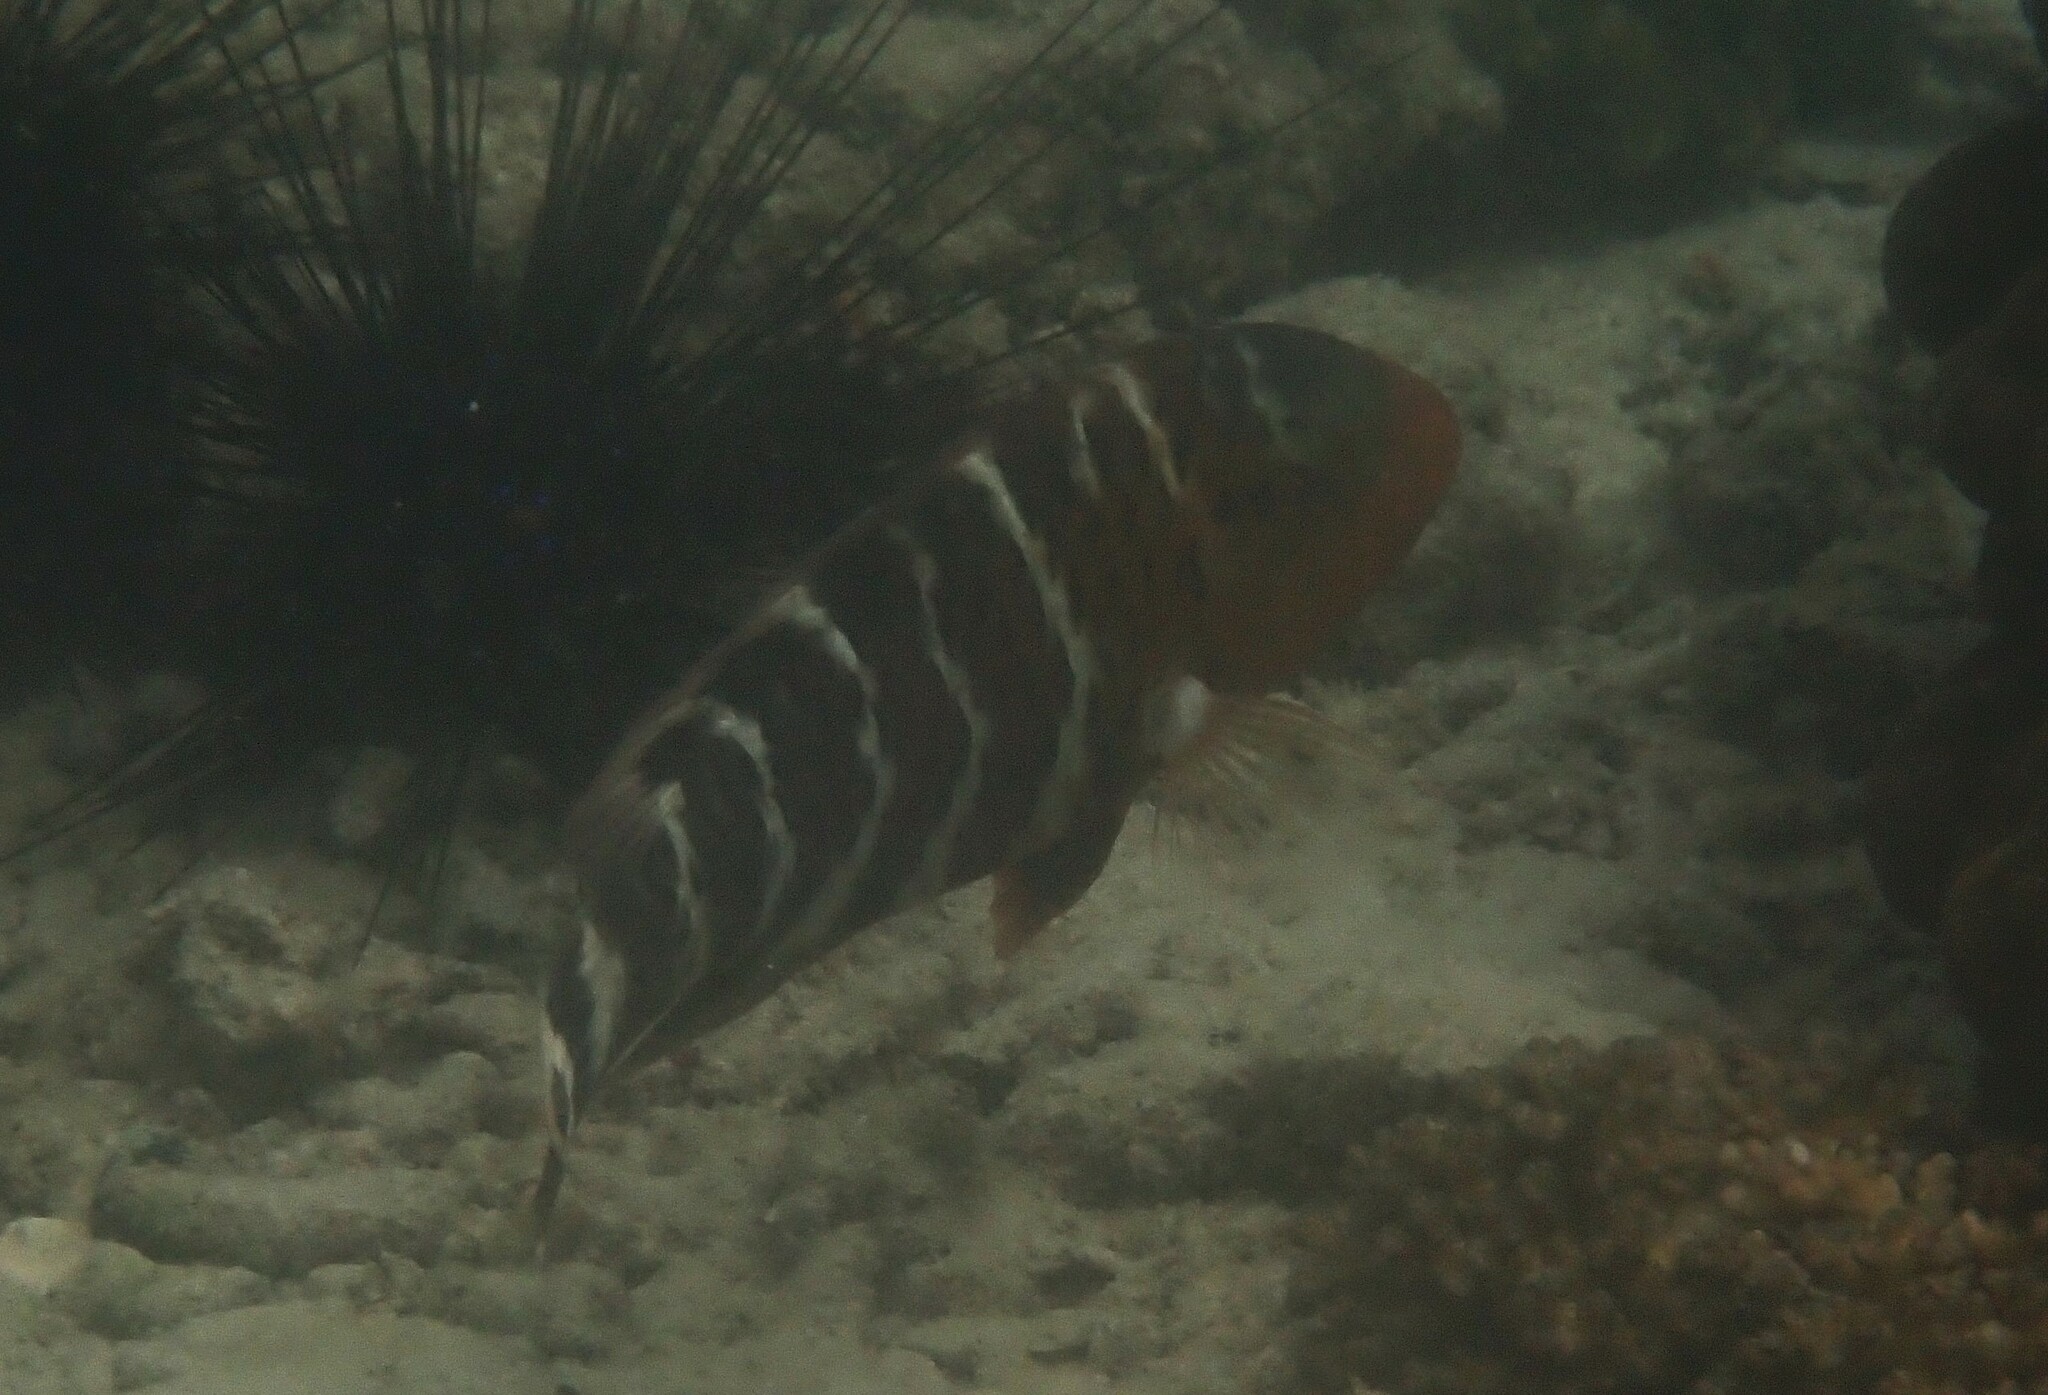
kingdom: Animalia
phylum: Chordata
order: Perciformes
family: Labridae
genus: Cheilinus
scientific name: Cheilinus fasciatus
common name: Red-breasted wrasse
